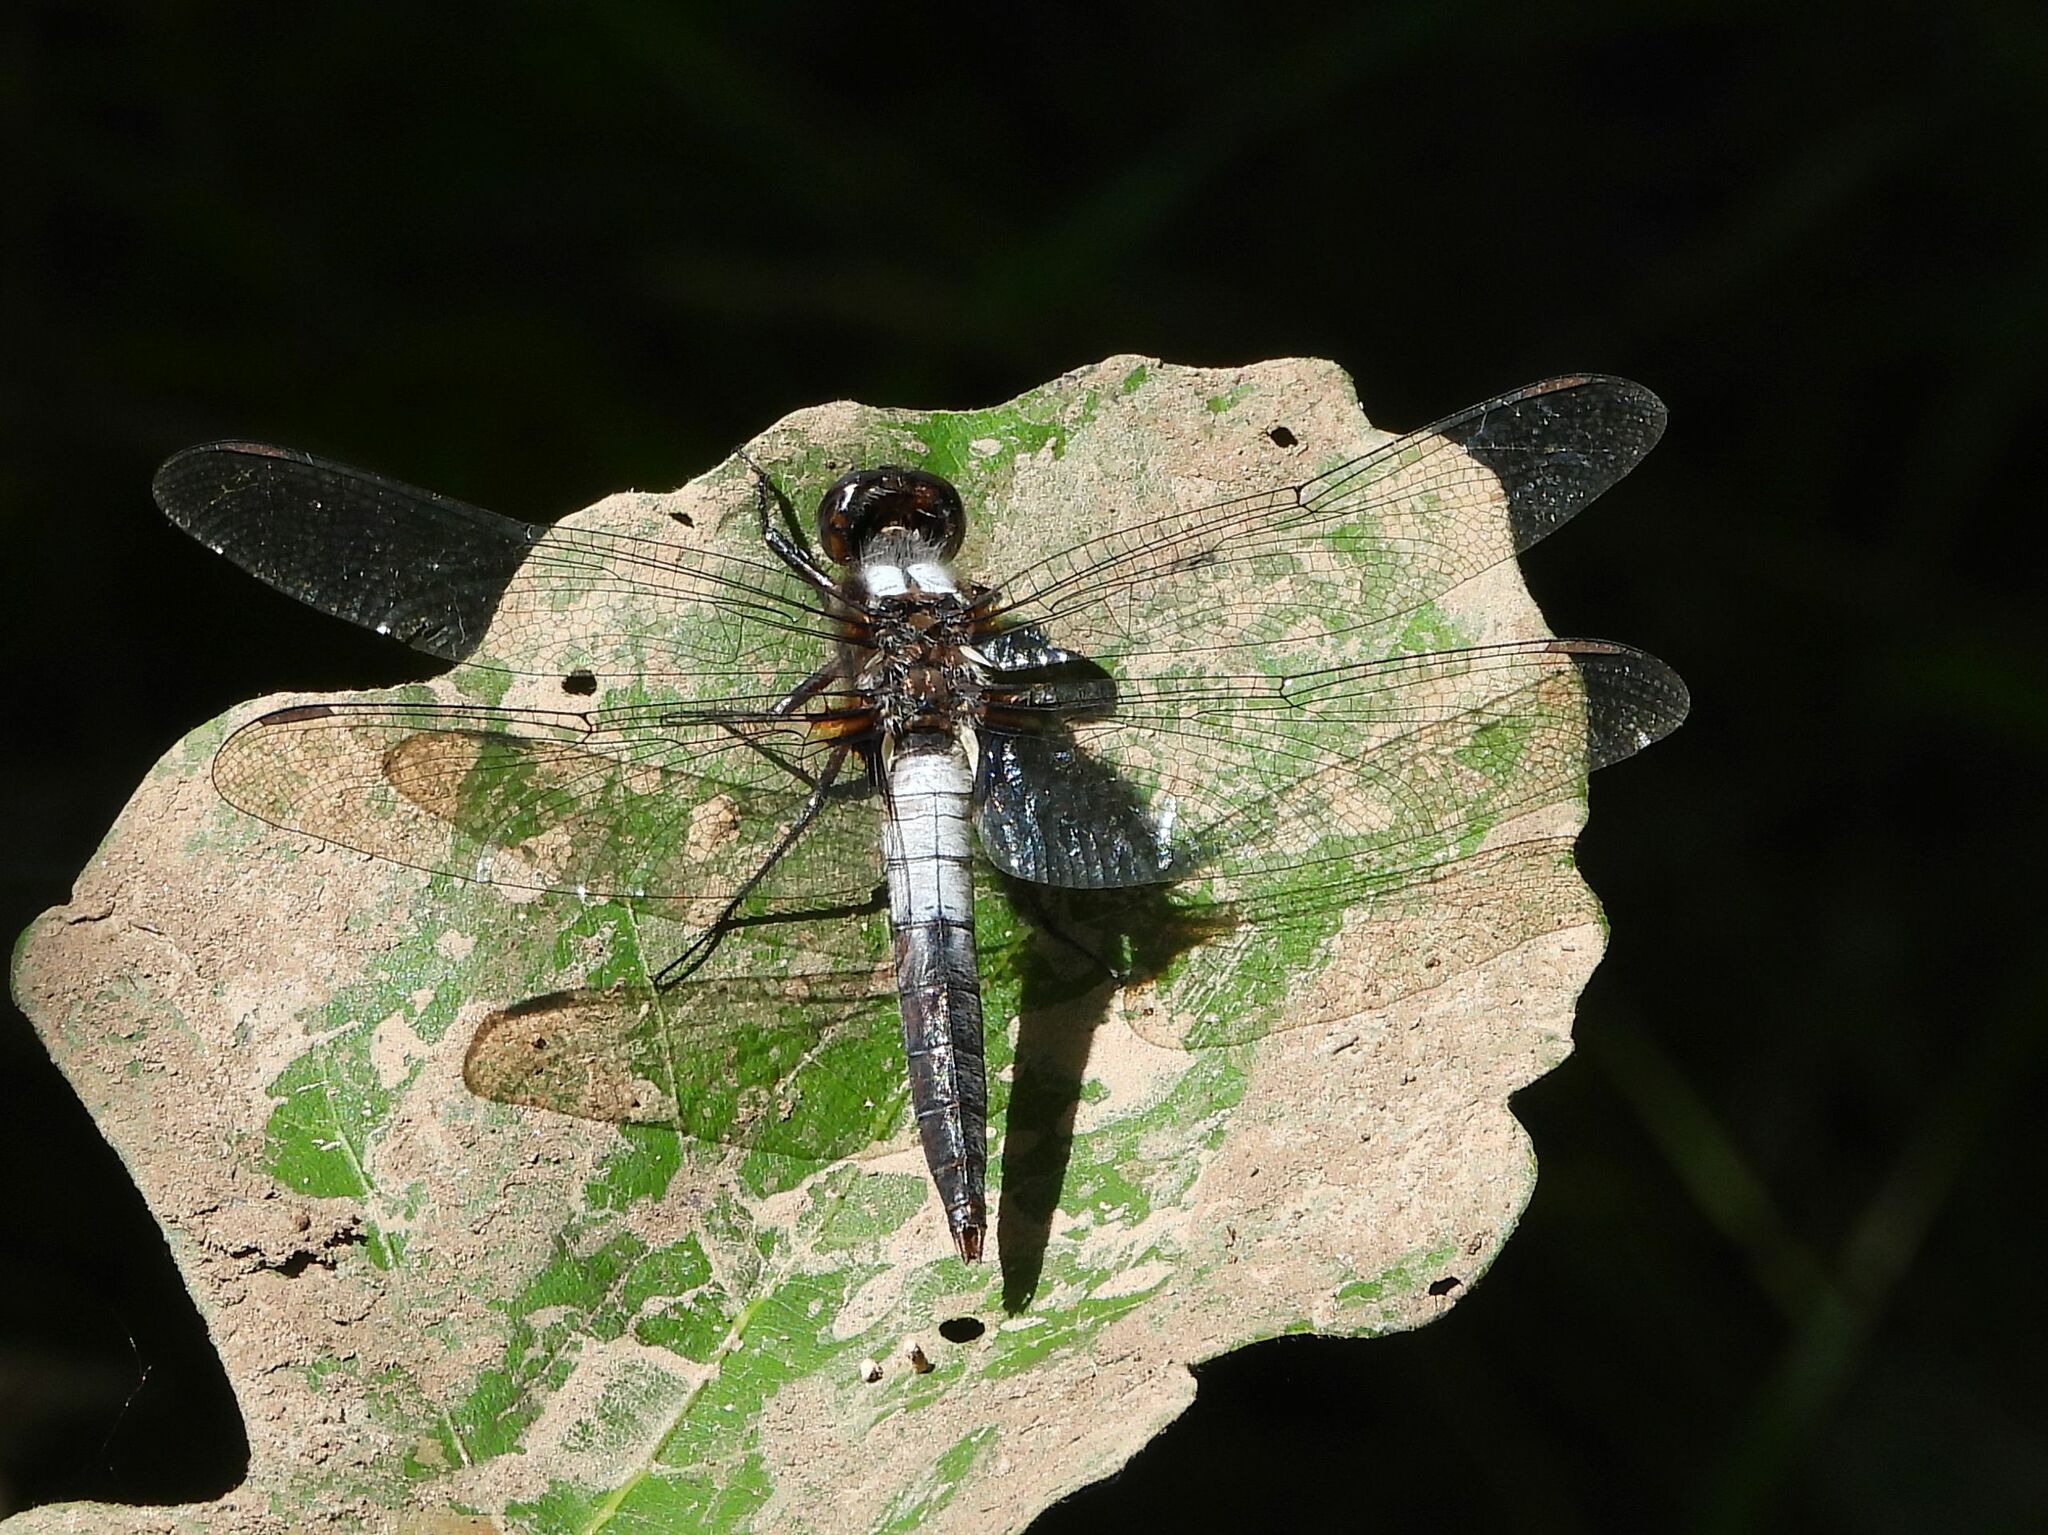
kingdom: Animalia
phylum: Arthropoda
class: Insecta
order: Odonata
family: Libellulidae
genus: Ladona
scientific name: Ladona julia
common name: Chalk-fronted corporal
